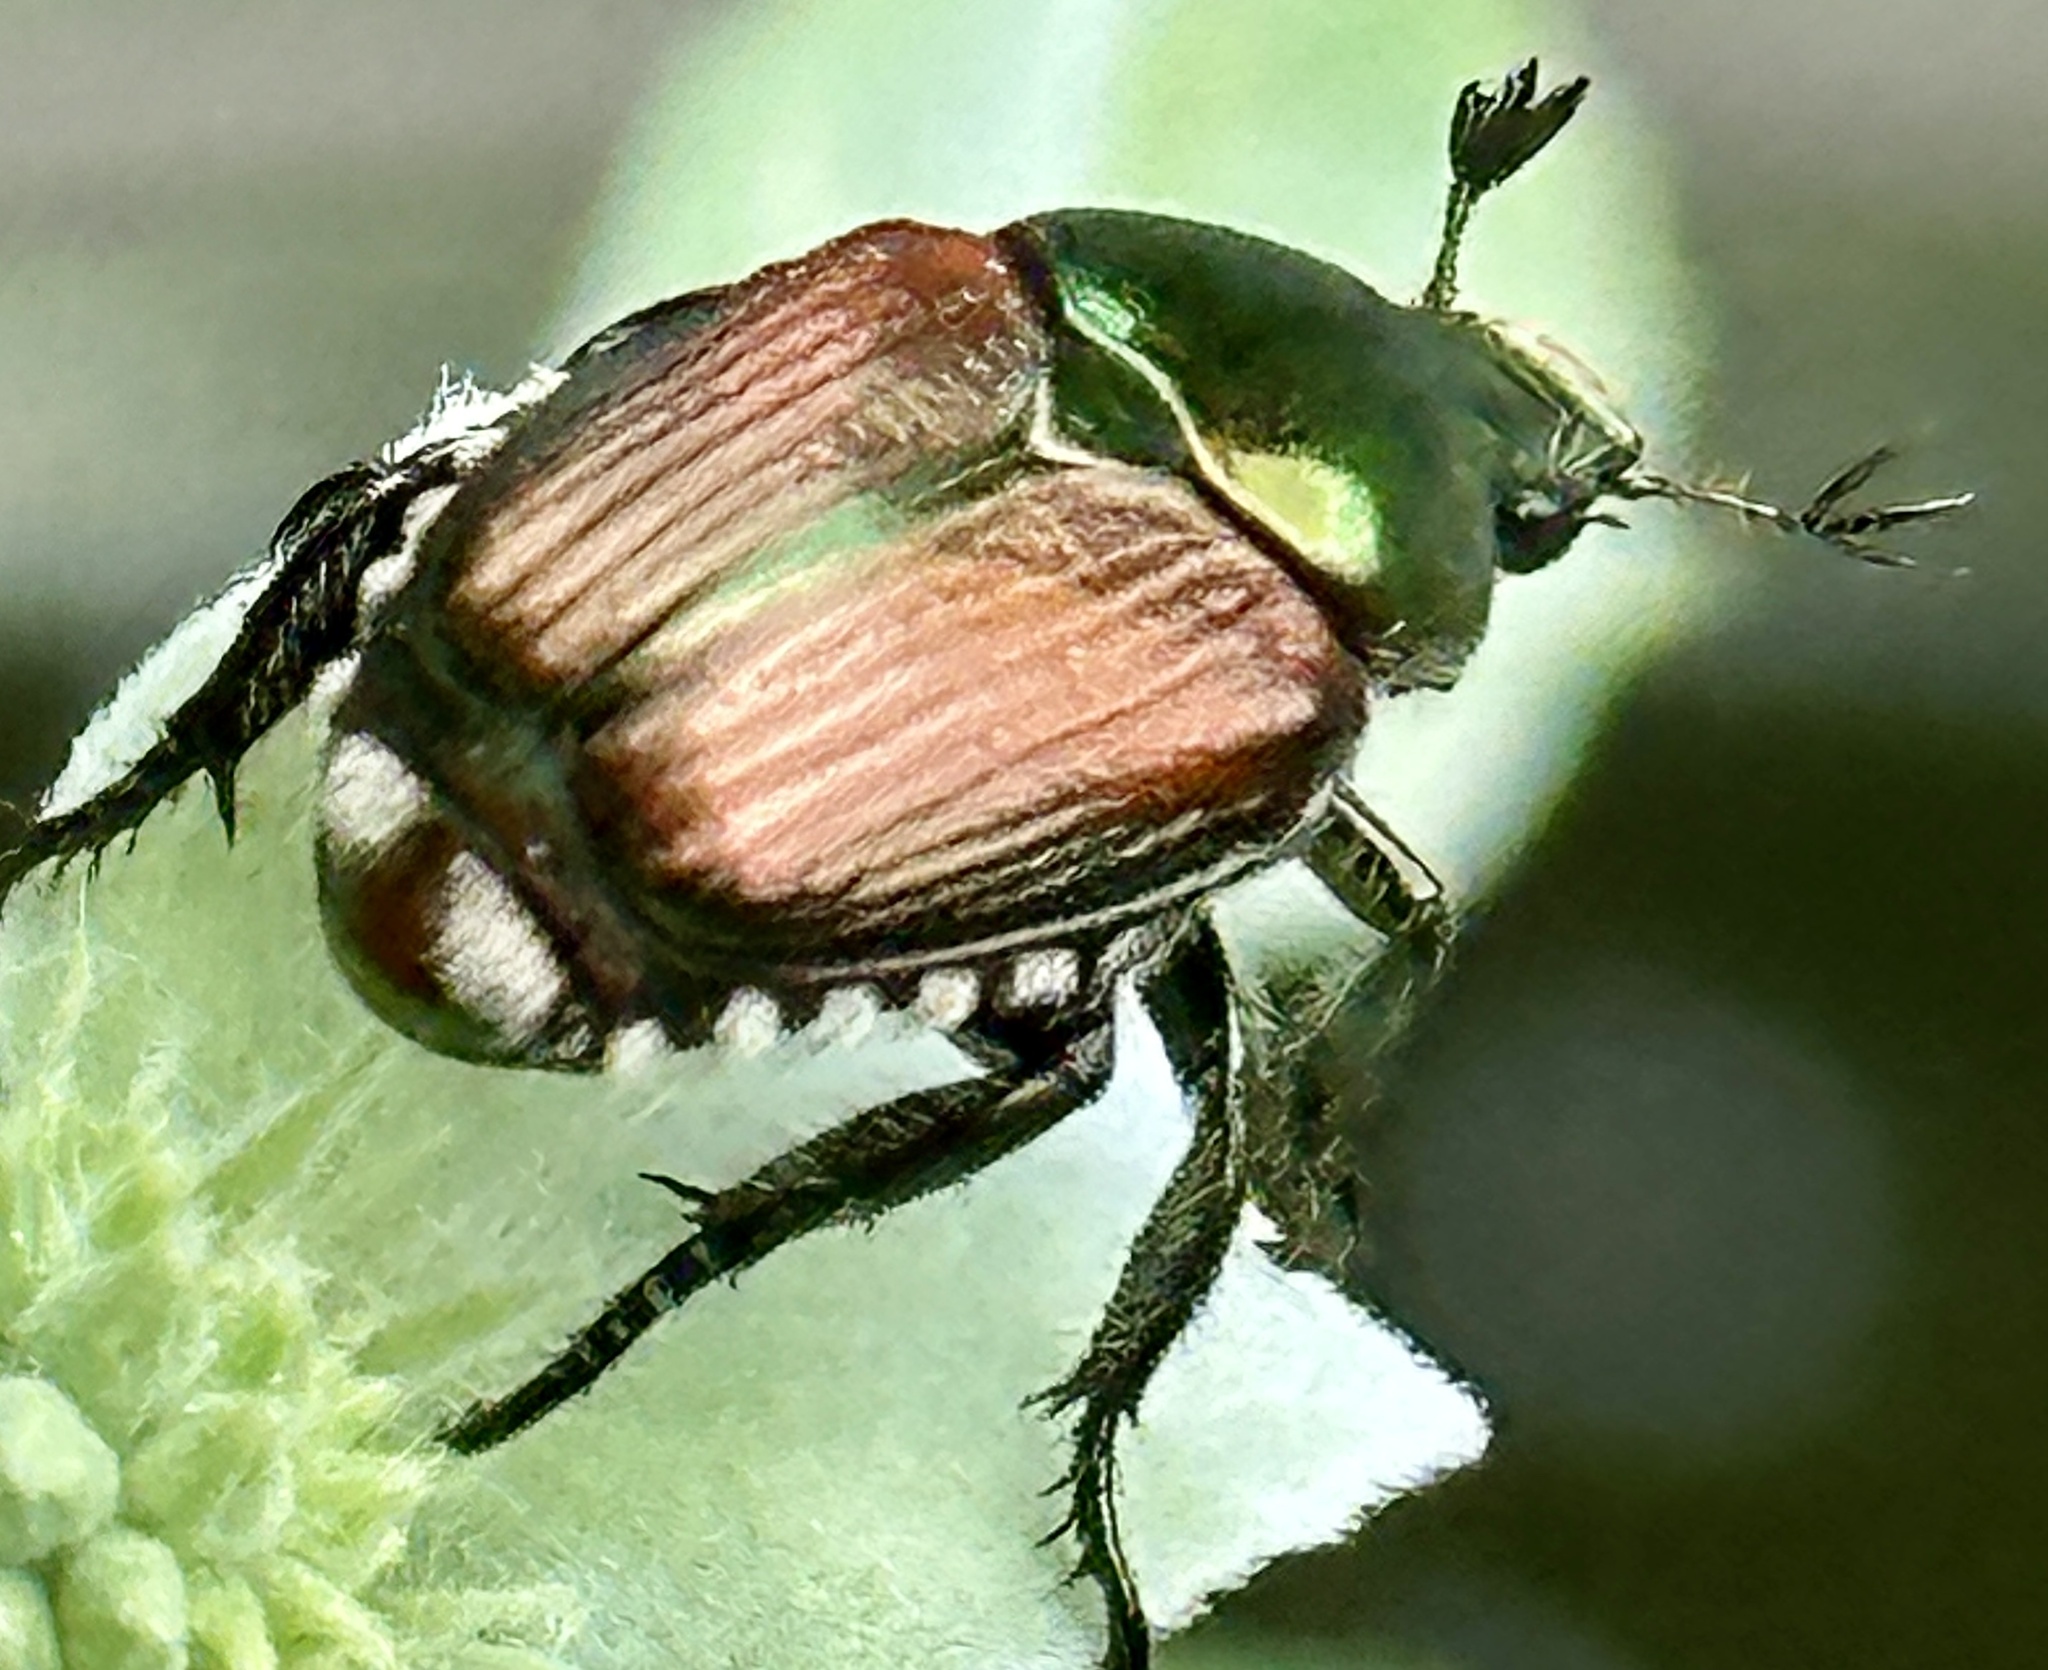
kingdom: Animalia
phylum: Arthropoda
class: Insecta
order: Coleoptera
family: Scarabaeidae
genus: Popillia
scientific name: Popillia japonica
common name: Japanese beetle
